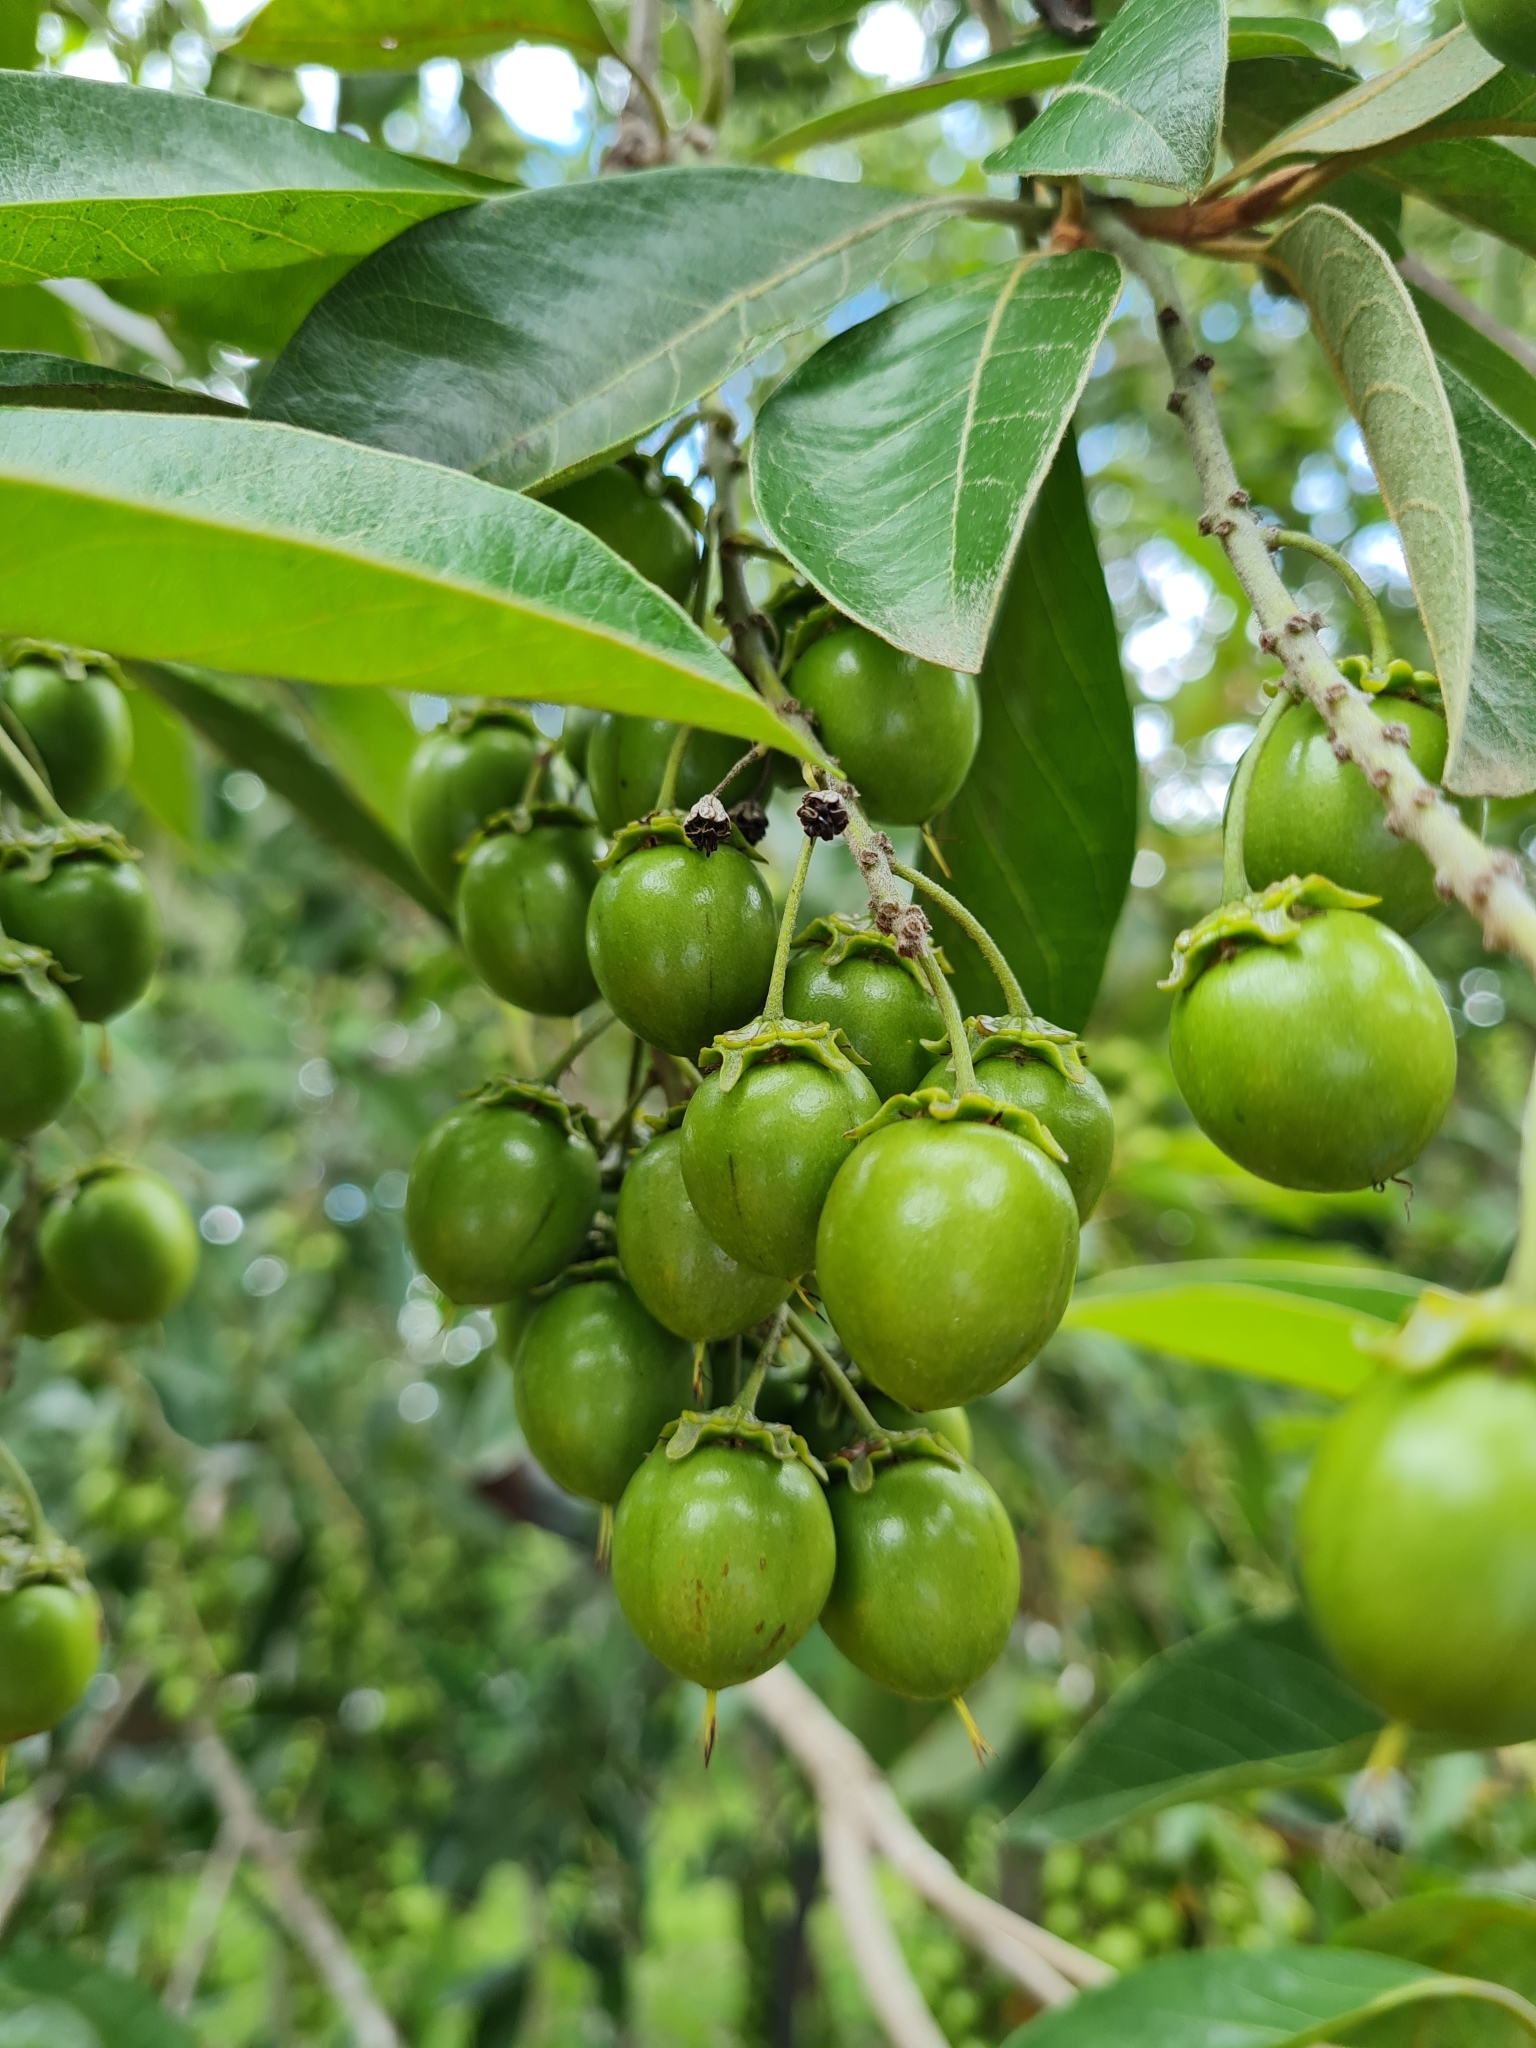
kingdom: Plantae
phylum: Tracheophyta
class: Magnoliopsida
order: Malpighiales
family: Malpighiaceae
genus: Byrsonima
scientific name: Byrsonima crassifolia
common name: Golden spoon
